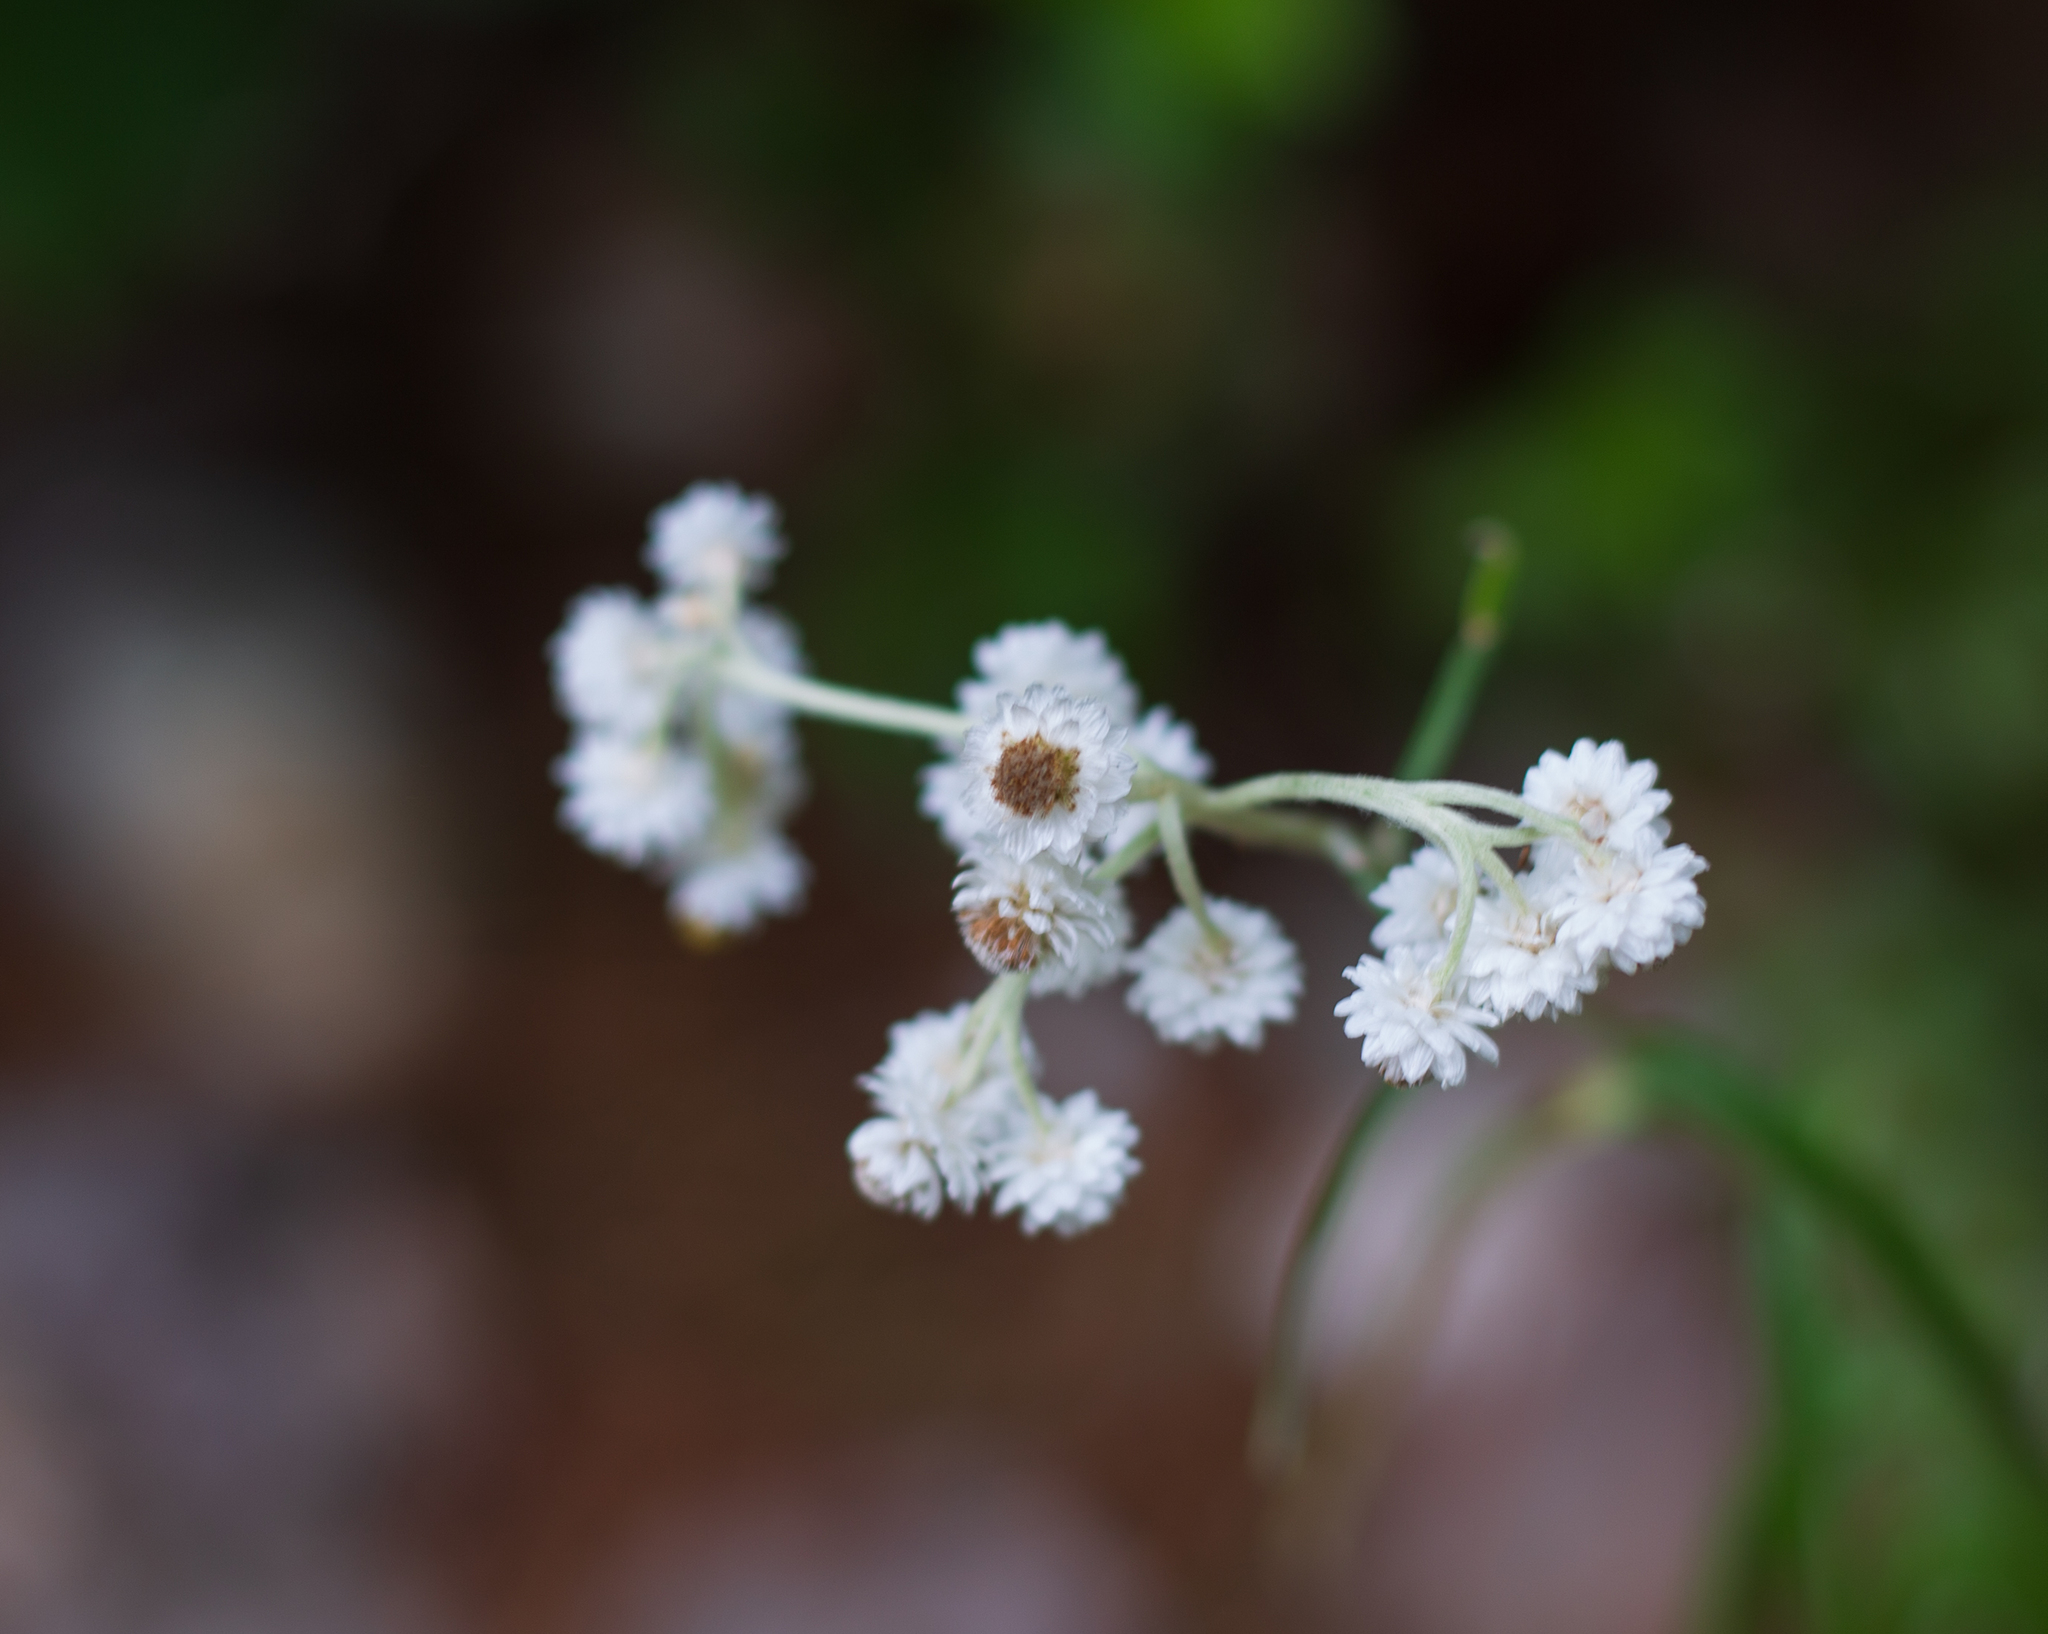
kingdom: Plantae
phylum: Tracheophyta
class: Magnoliopsida
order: Asterales
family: Asteraceae
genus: Anaphalis
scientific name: Anaphalis margaritacea
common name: Pearly everlasting
